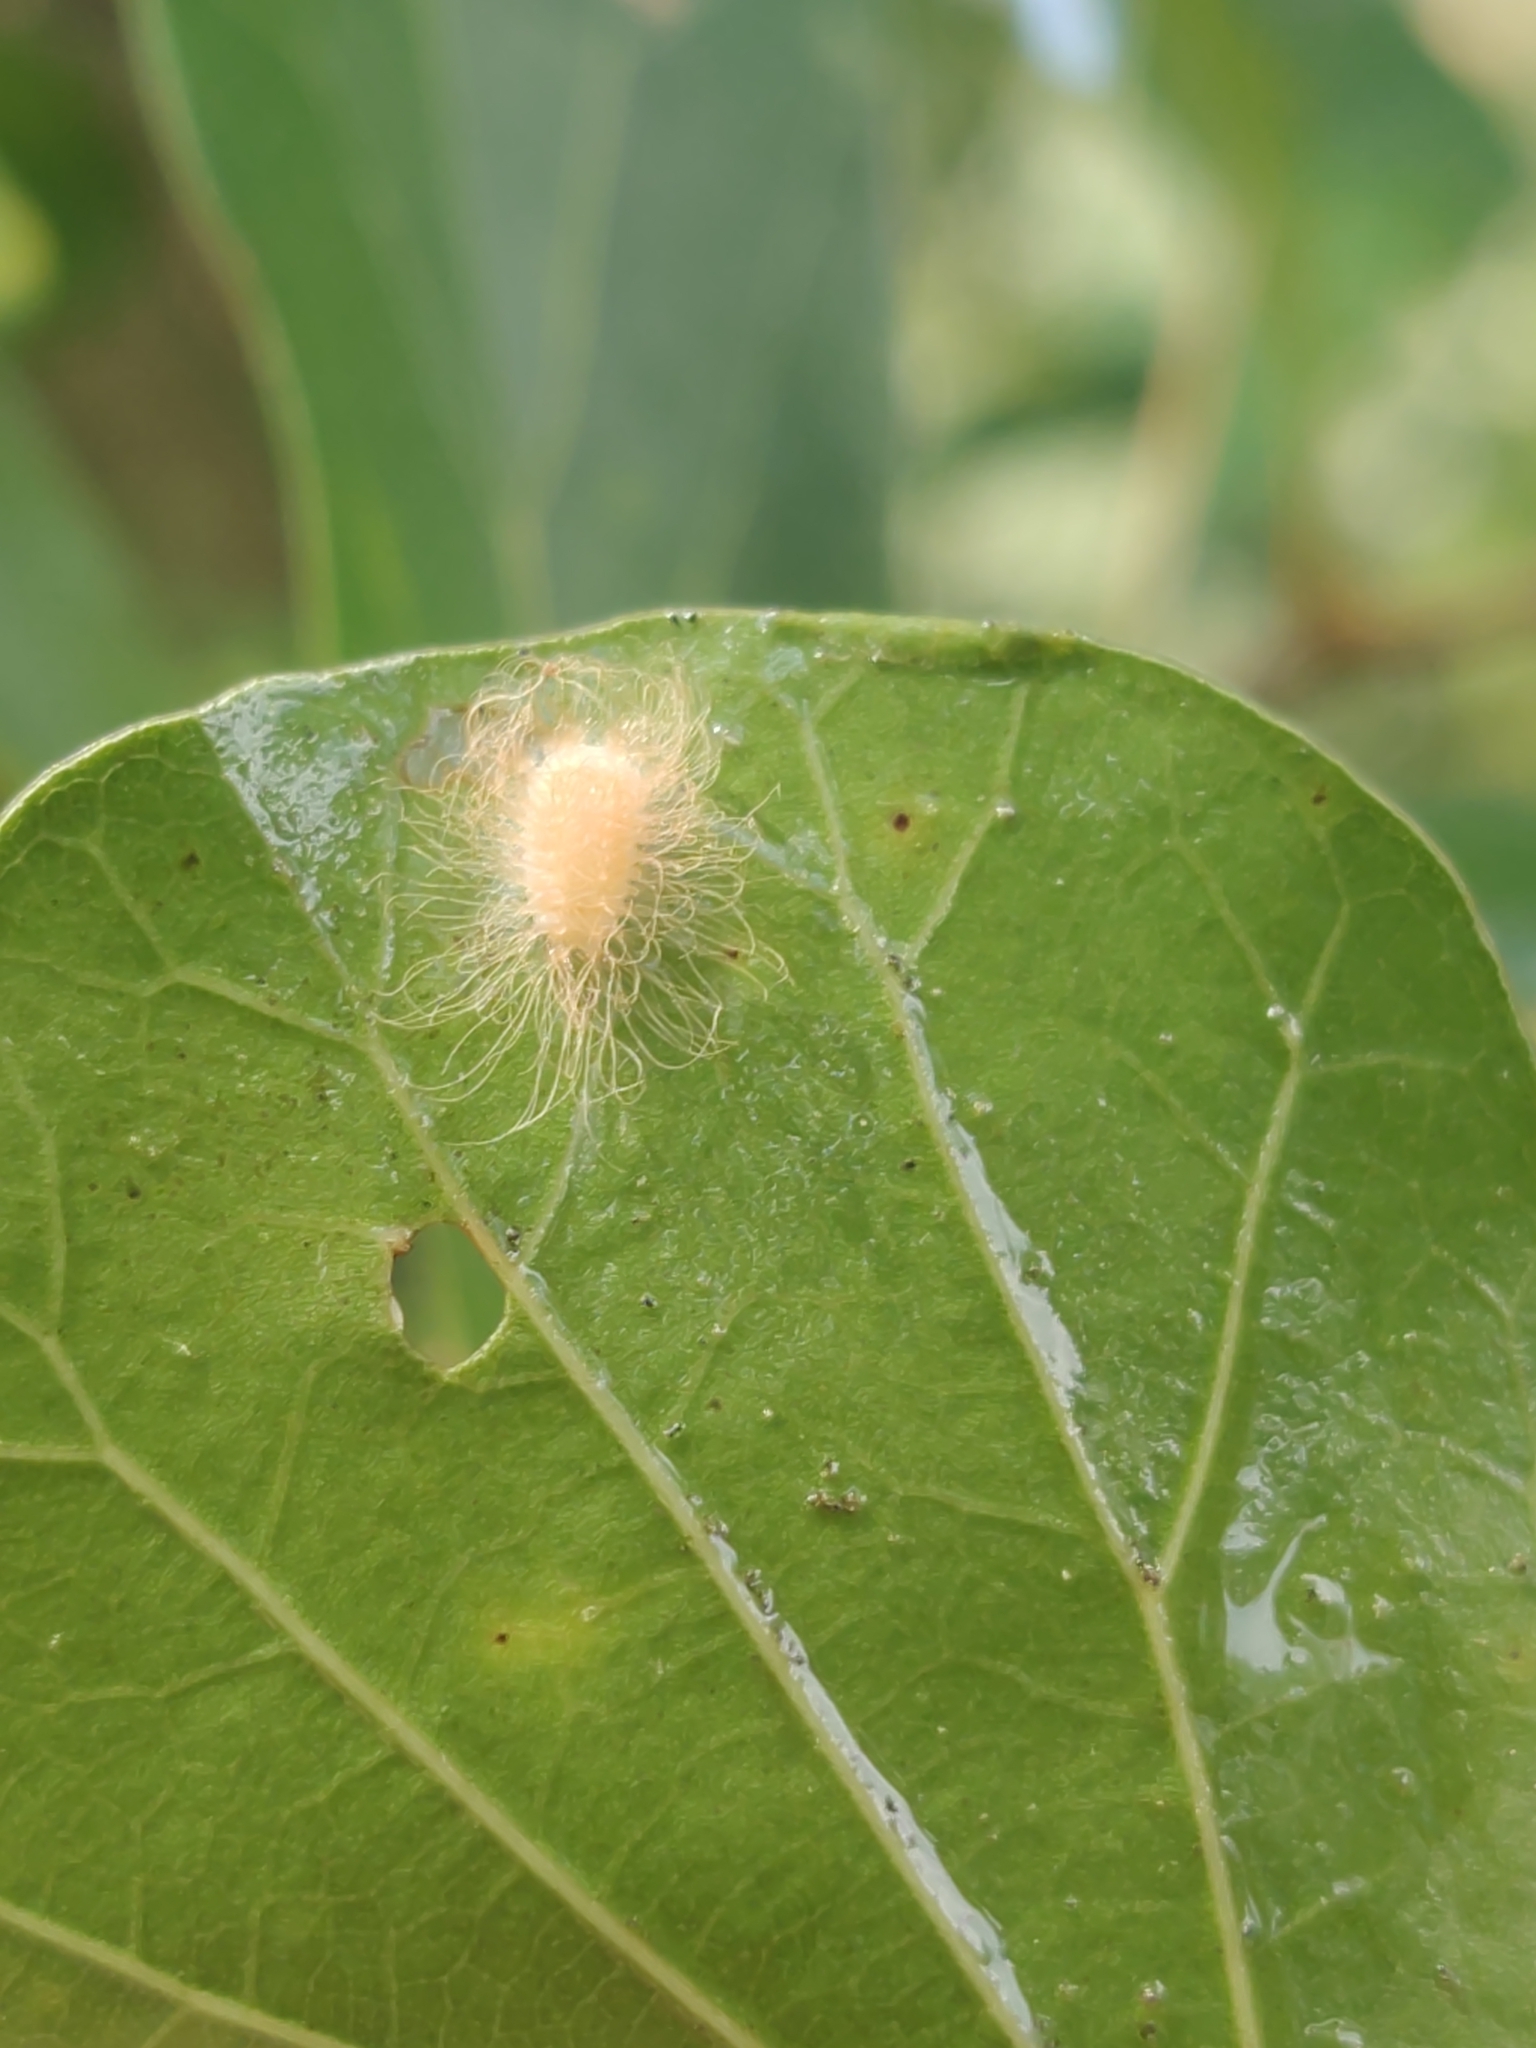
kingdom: Animalia
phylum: Arthropoda
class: Insecta
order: Lepidoptera
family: Megalopygidae
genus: Megalopyge
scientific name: Megalopyge
